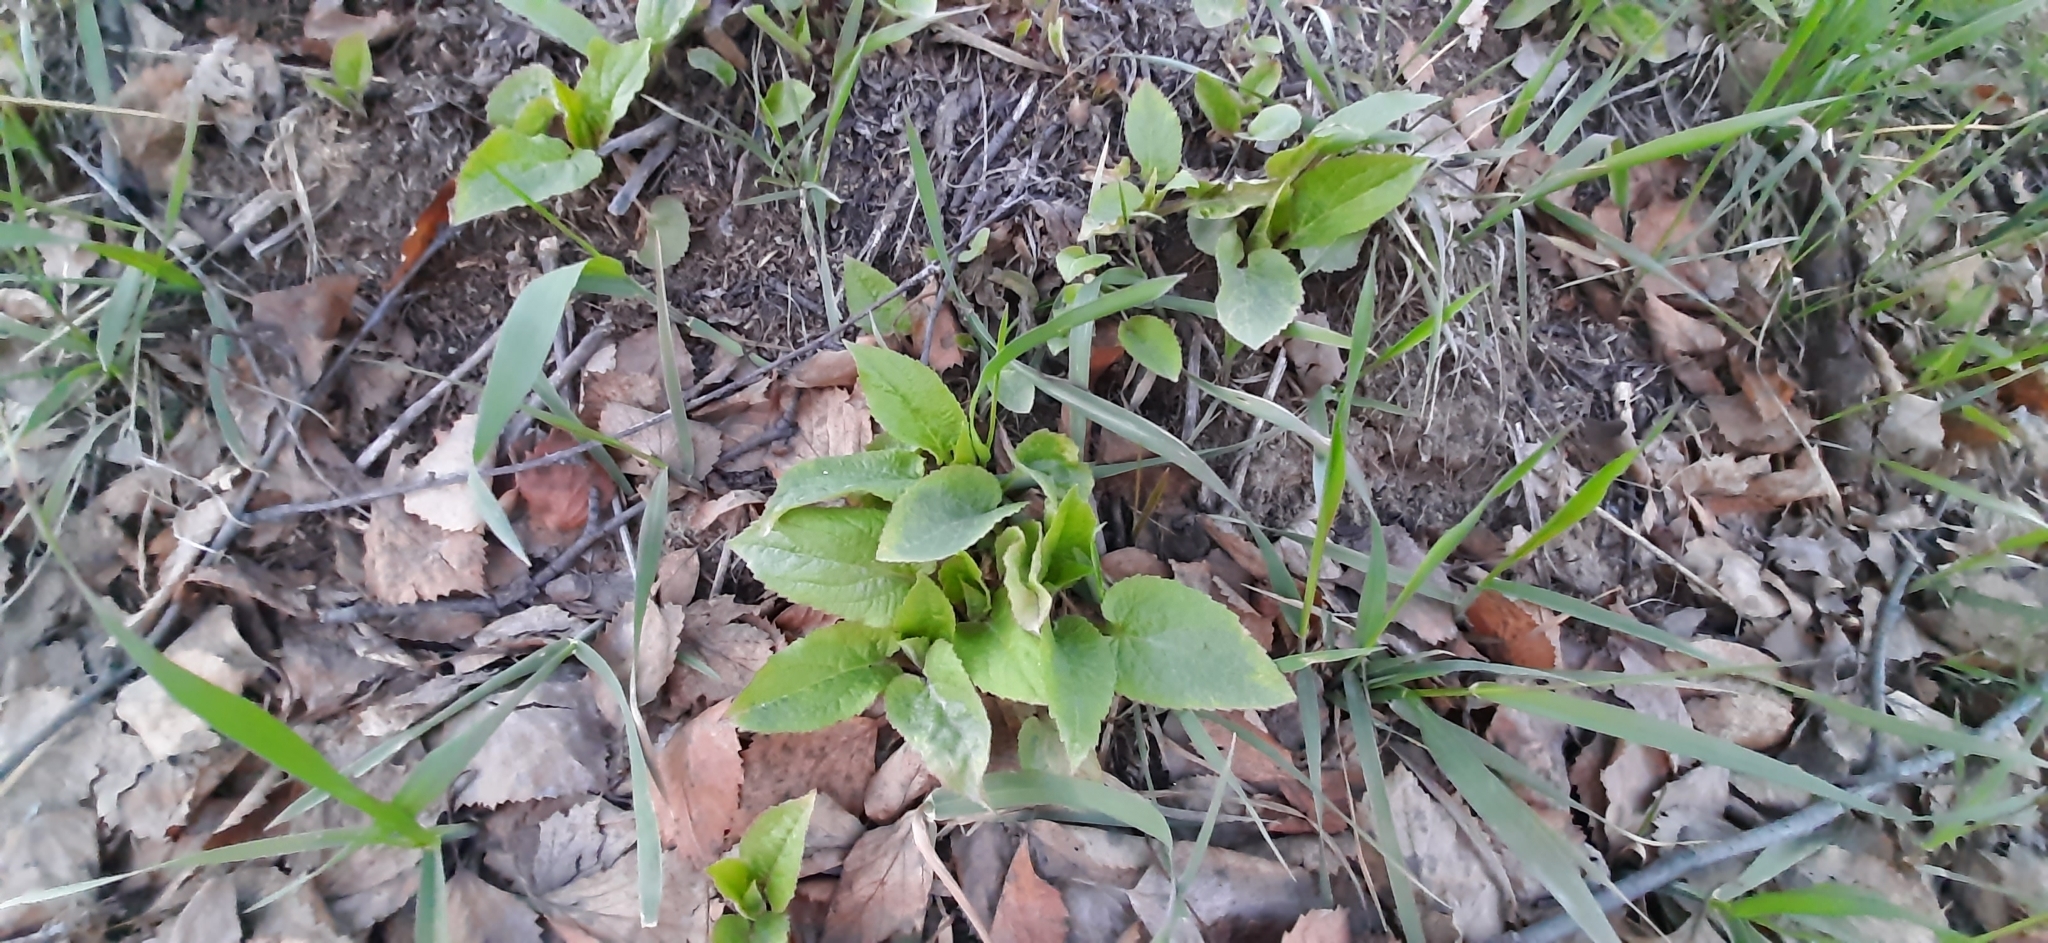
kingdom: Plantae
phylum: Tracheophyta
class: Magnoliopsida
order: Asterales
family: Campanulaceae
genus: Campanula
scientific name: Campanula rapunculoides
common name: Creeping bellflower
